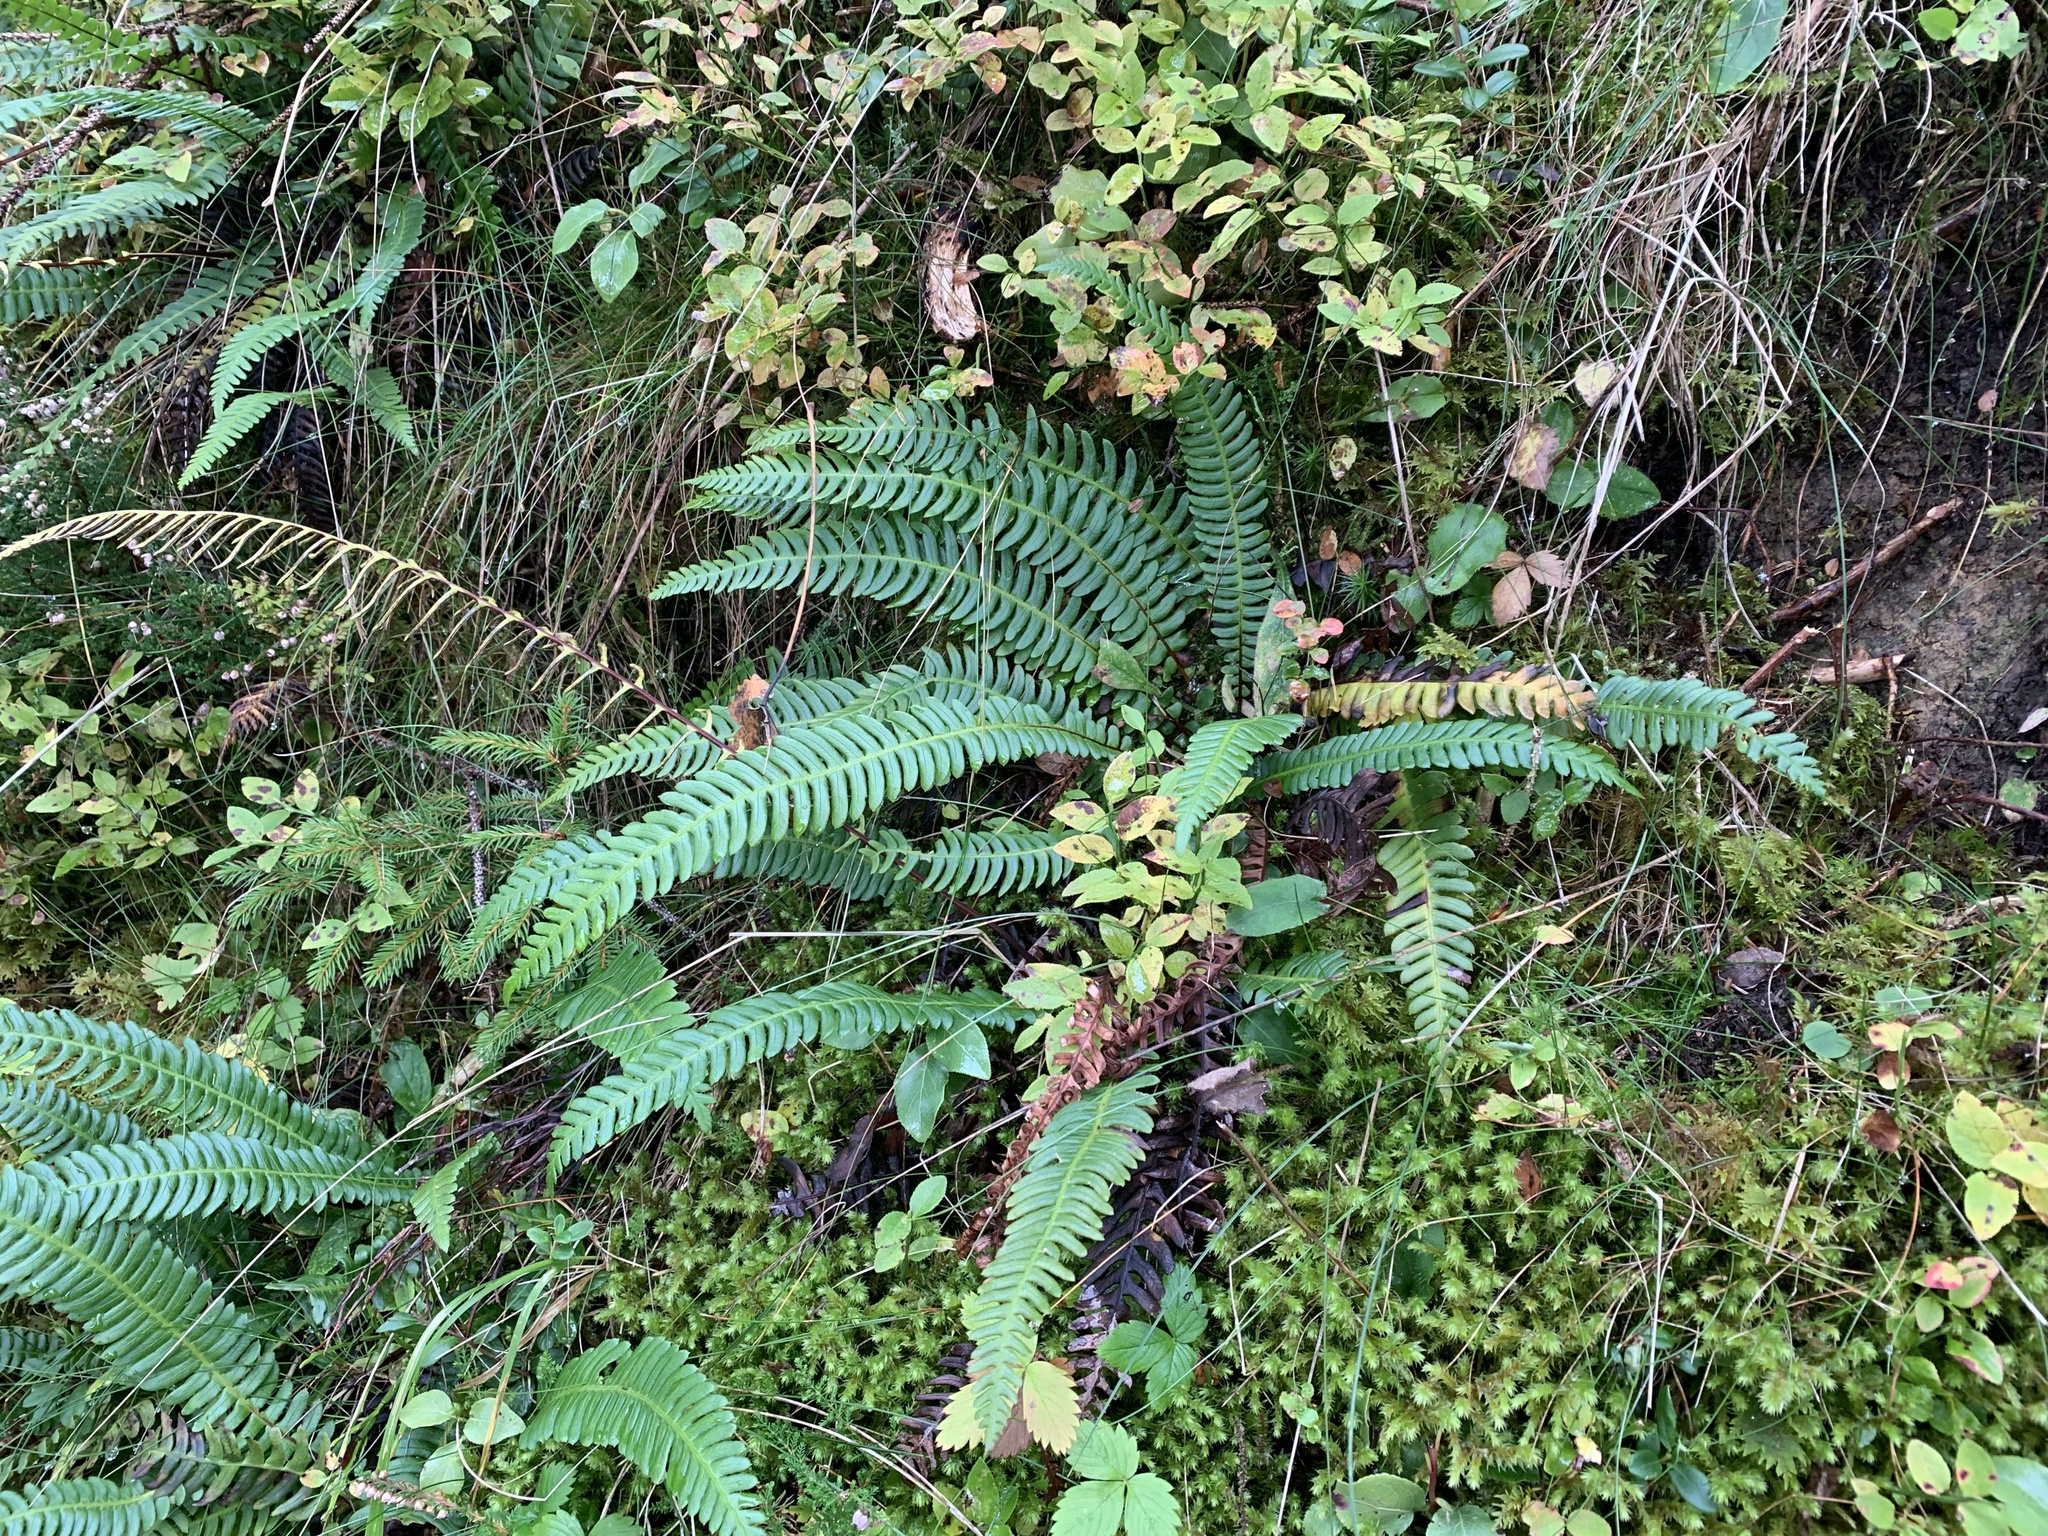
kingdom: Plantae
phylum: Tracheophyta
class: Polypodiopsida
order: Polypodiales
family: Blechnaceae
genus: Struthiopteris
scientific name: Struthiopteris spicant
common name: Deer fern
